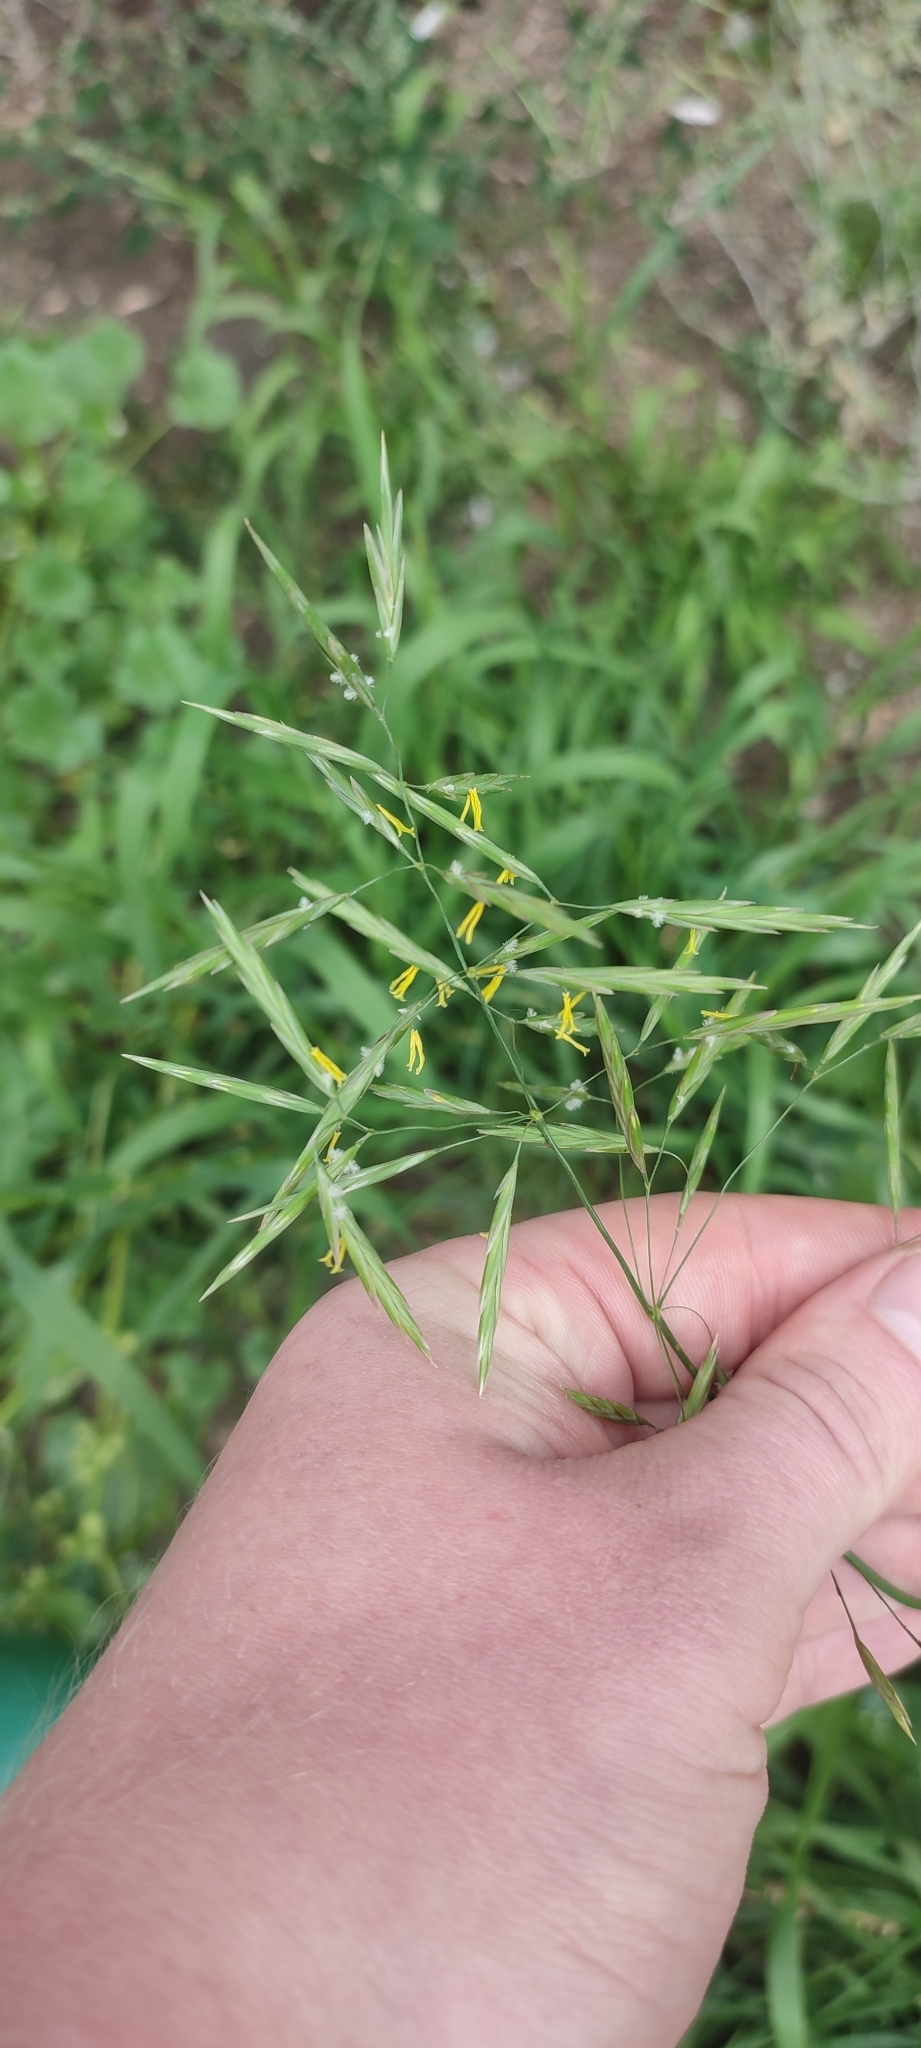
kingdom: Plantae
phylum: Tracheophyta
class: Liliopsida
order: Poales
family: Poaceae
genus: Bromus
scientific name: Bromus inermis
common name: Smooth brome
